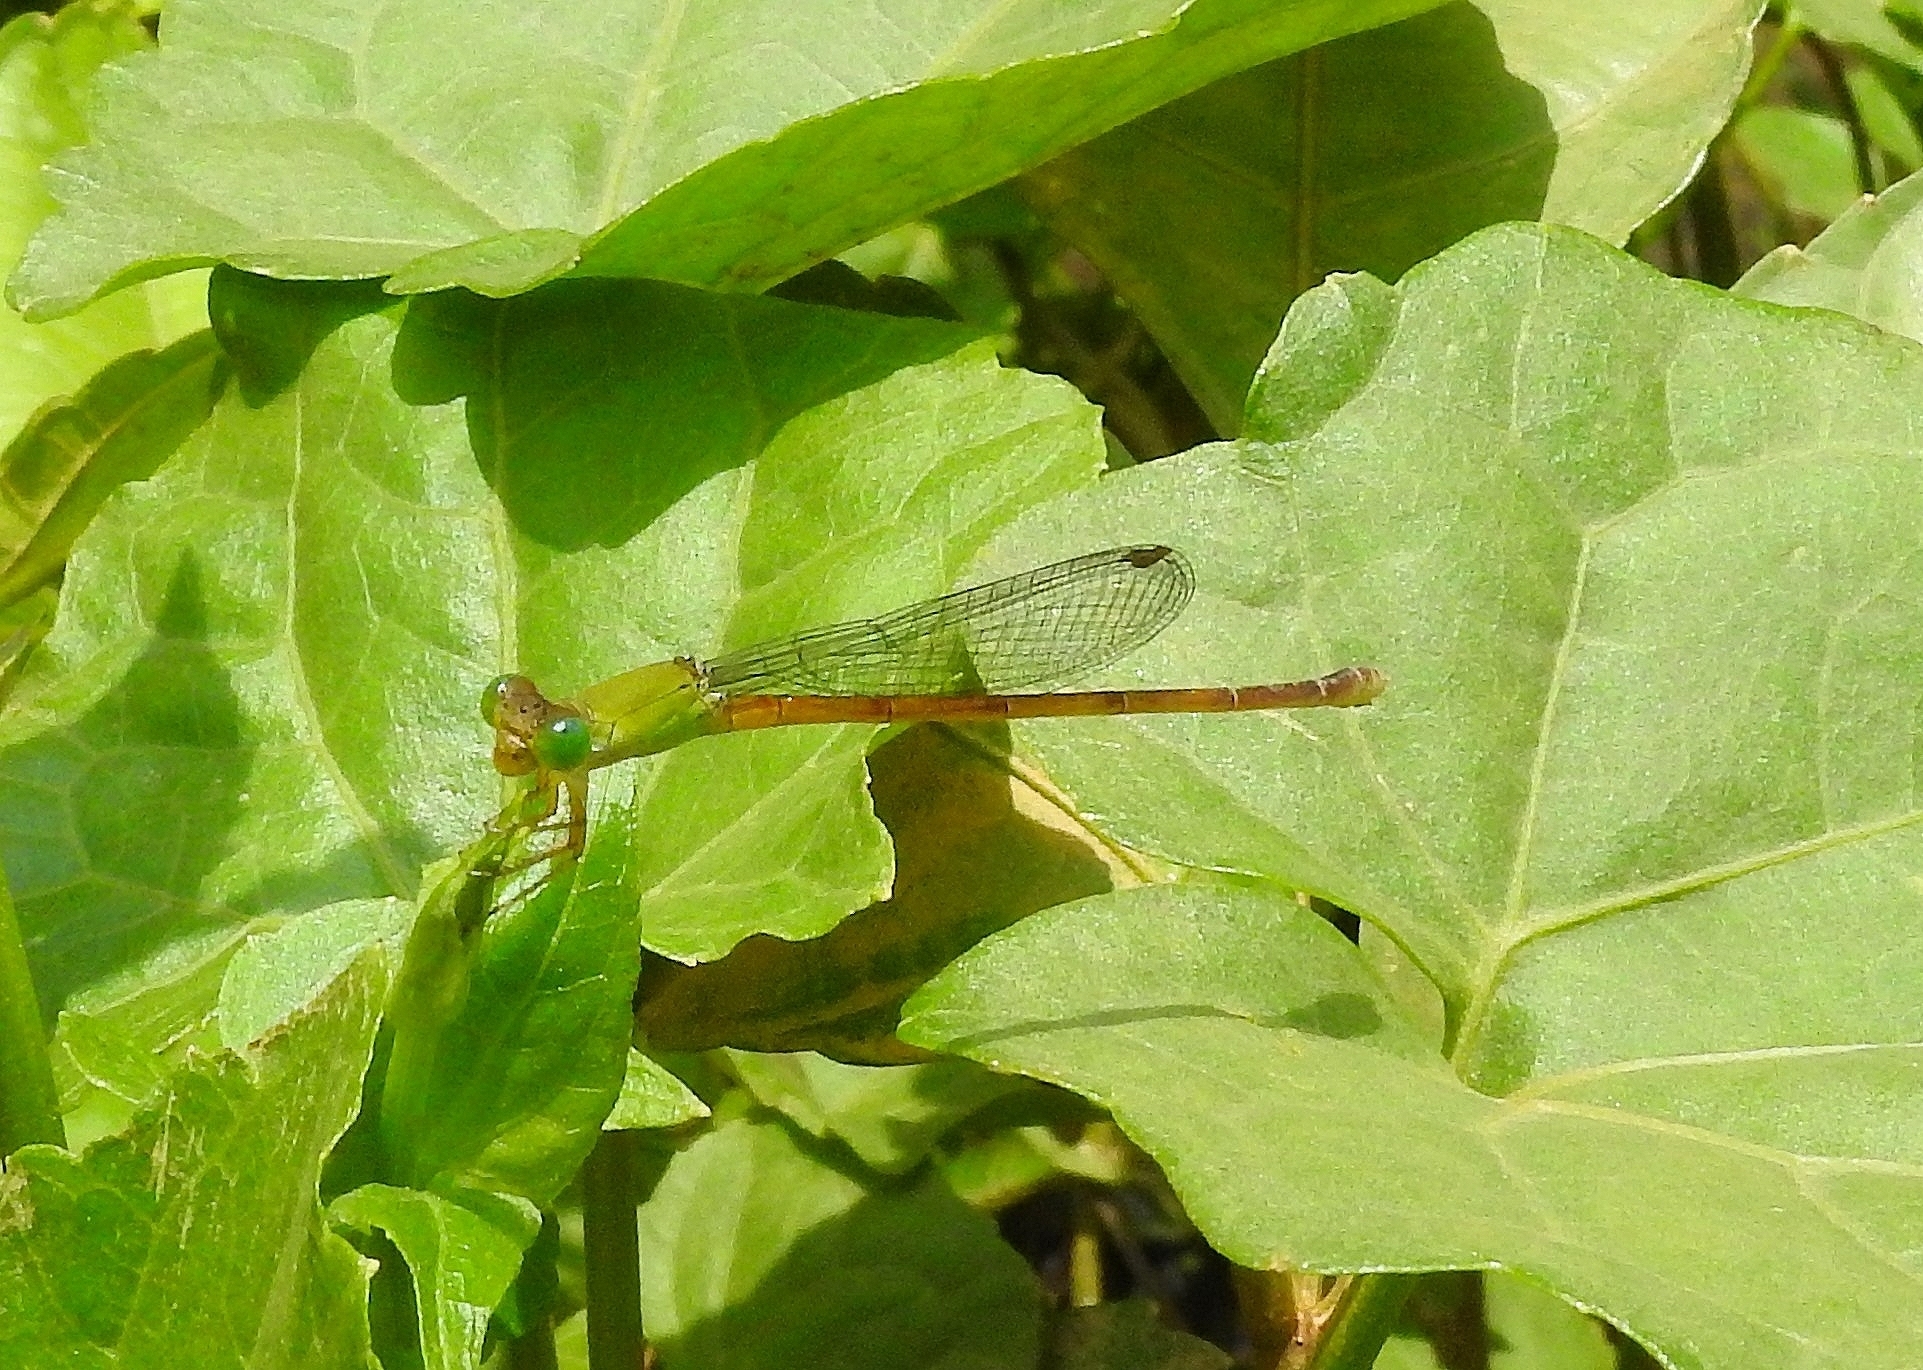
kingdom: Animalia
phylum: Arthropoda
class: Insecta
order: Odonata
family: Coenagrionidae
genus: Ceriagrion
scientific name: Ceriagrion chromothorax
